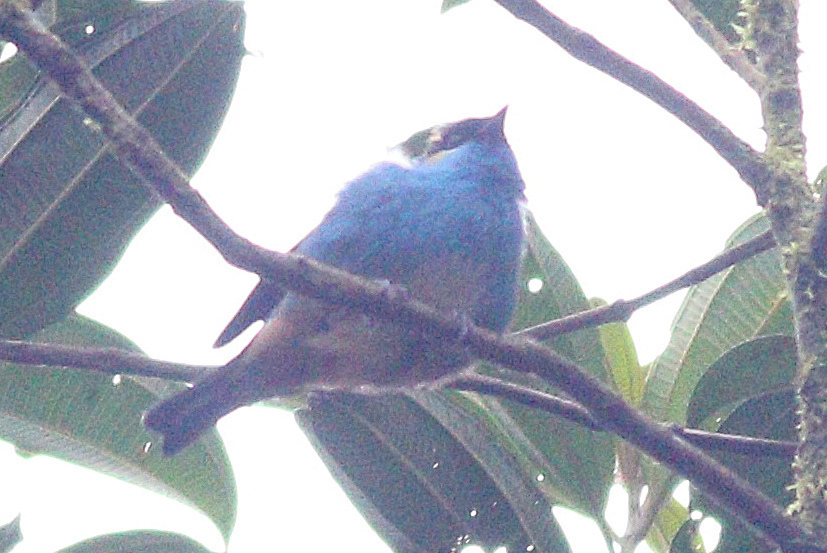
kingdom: Animalia
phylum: Chordata
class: Aves
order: Passeriformes
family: Thraupidae
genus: Chalcothraupis
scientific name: Chalcothraupis ruficervix
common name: Golden-naped tanager
